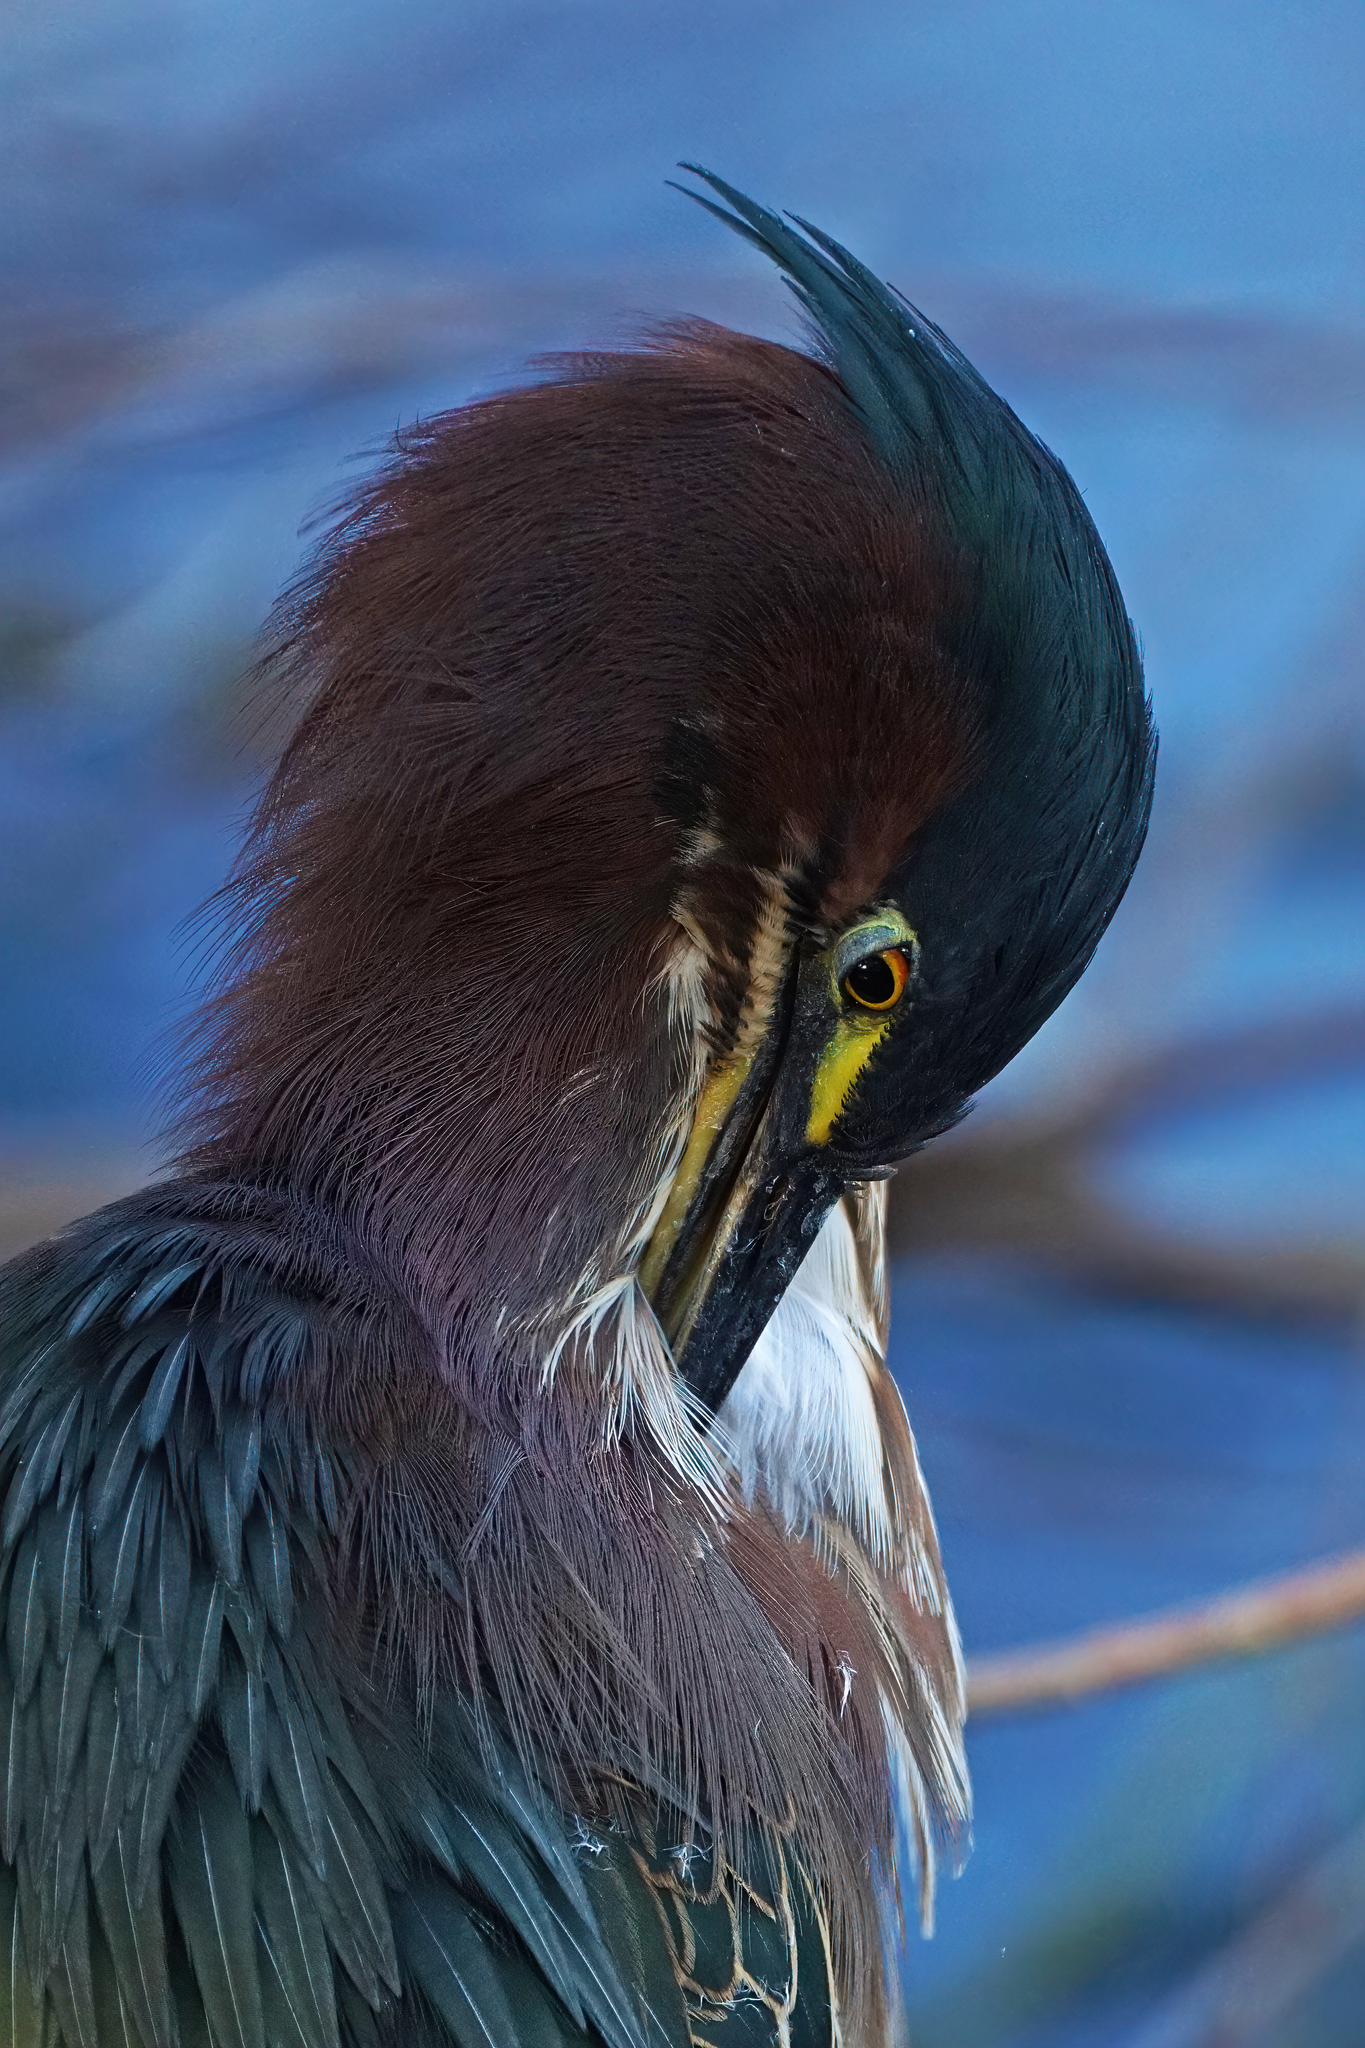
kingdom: Animalia
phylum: Chordata
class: Aves
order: Pelecaniformes
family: Ardeidae
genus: Butorides
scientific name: Butorides virescens
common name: Green heron
